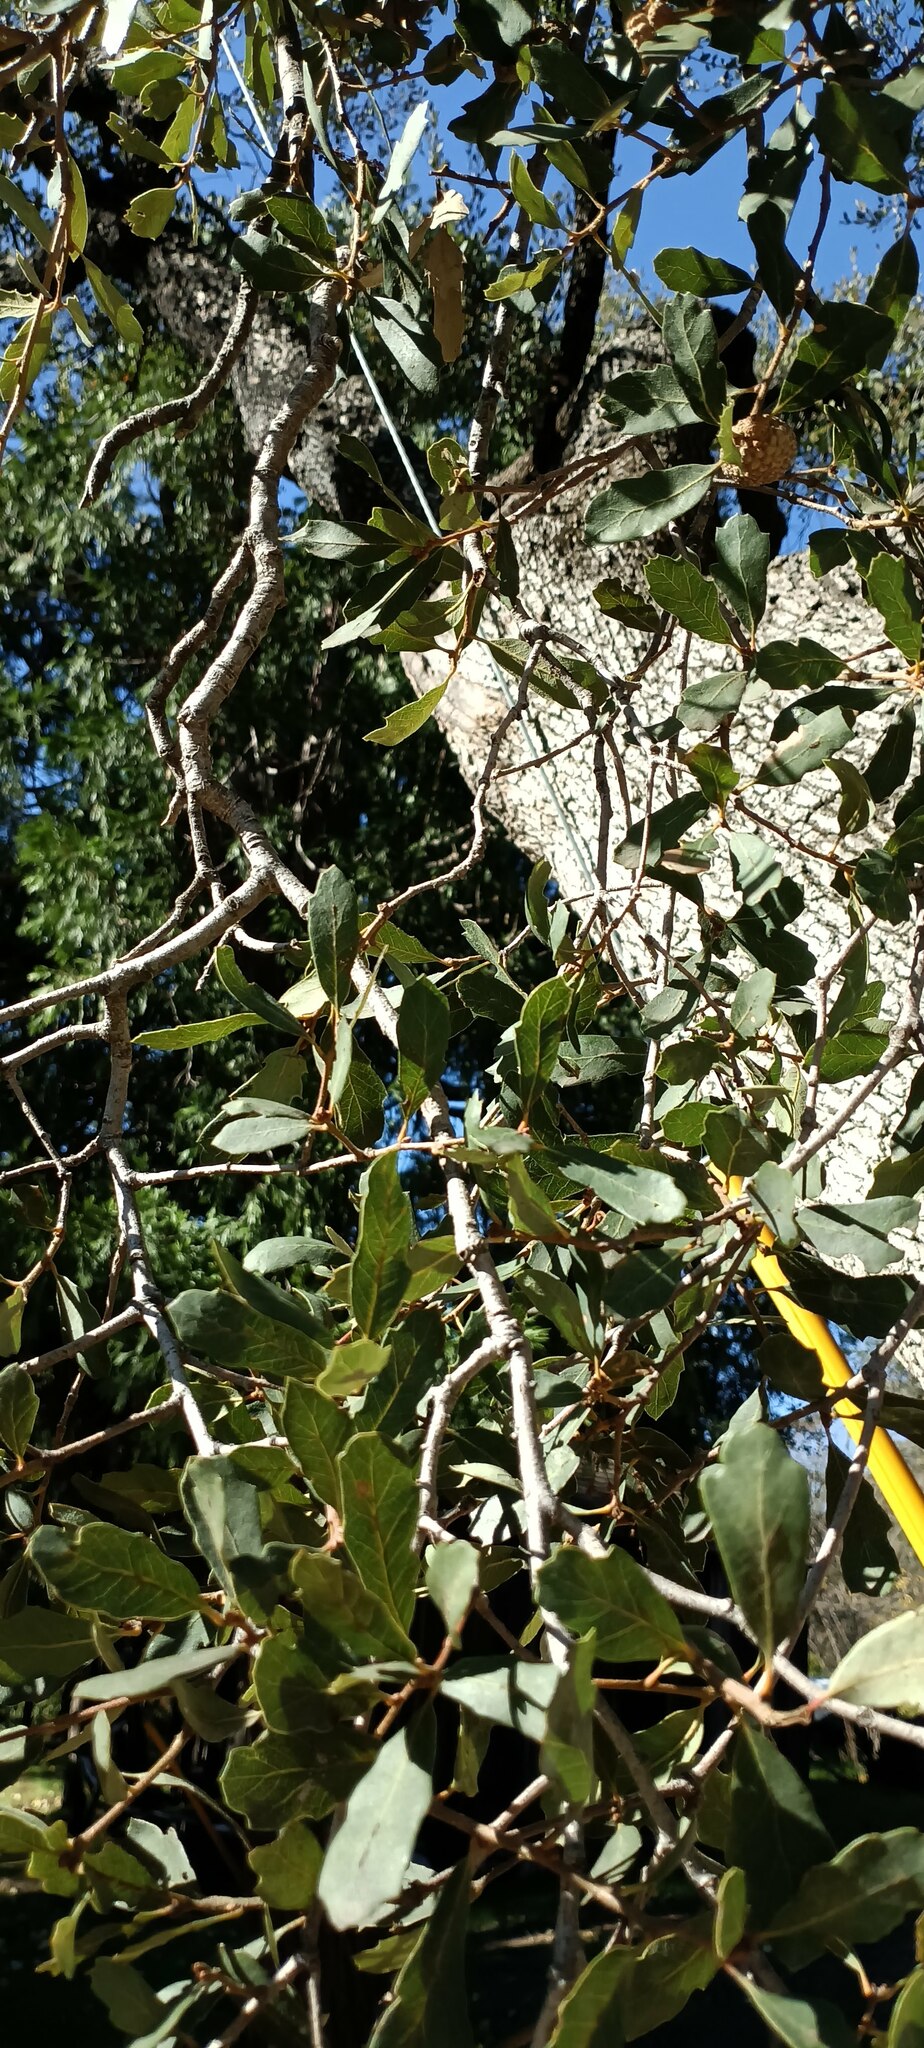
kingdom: Plantae
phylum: Tracheophyta
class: Magnoliopsida
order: Fagales
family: Fagaceae
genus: Quercus
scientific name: Quercus engelmannii
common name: Engelmann oak
